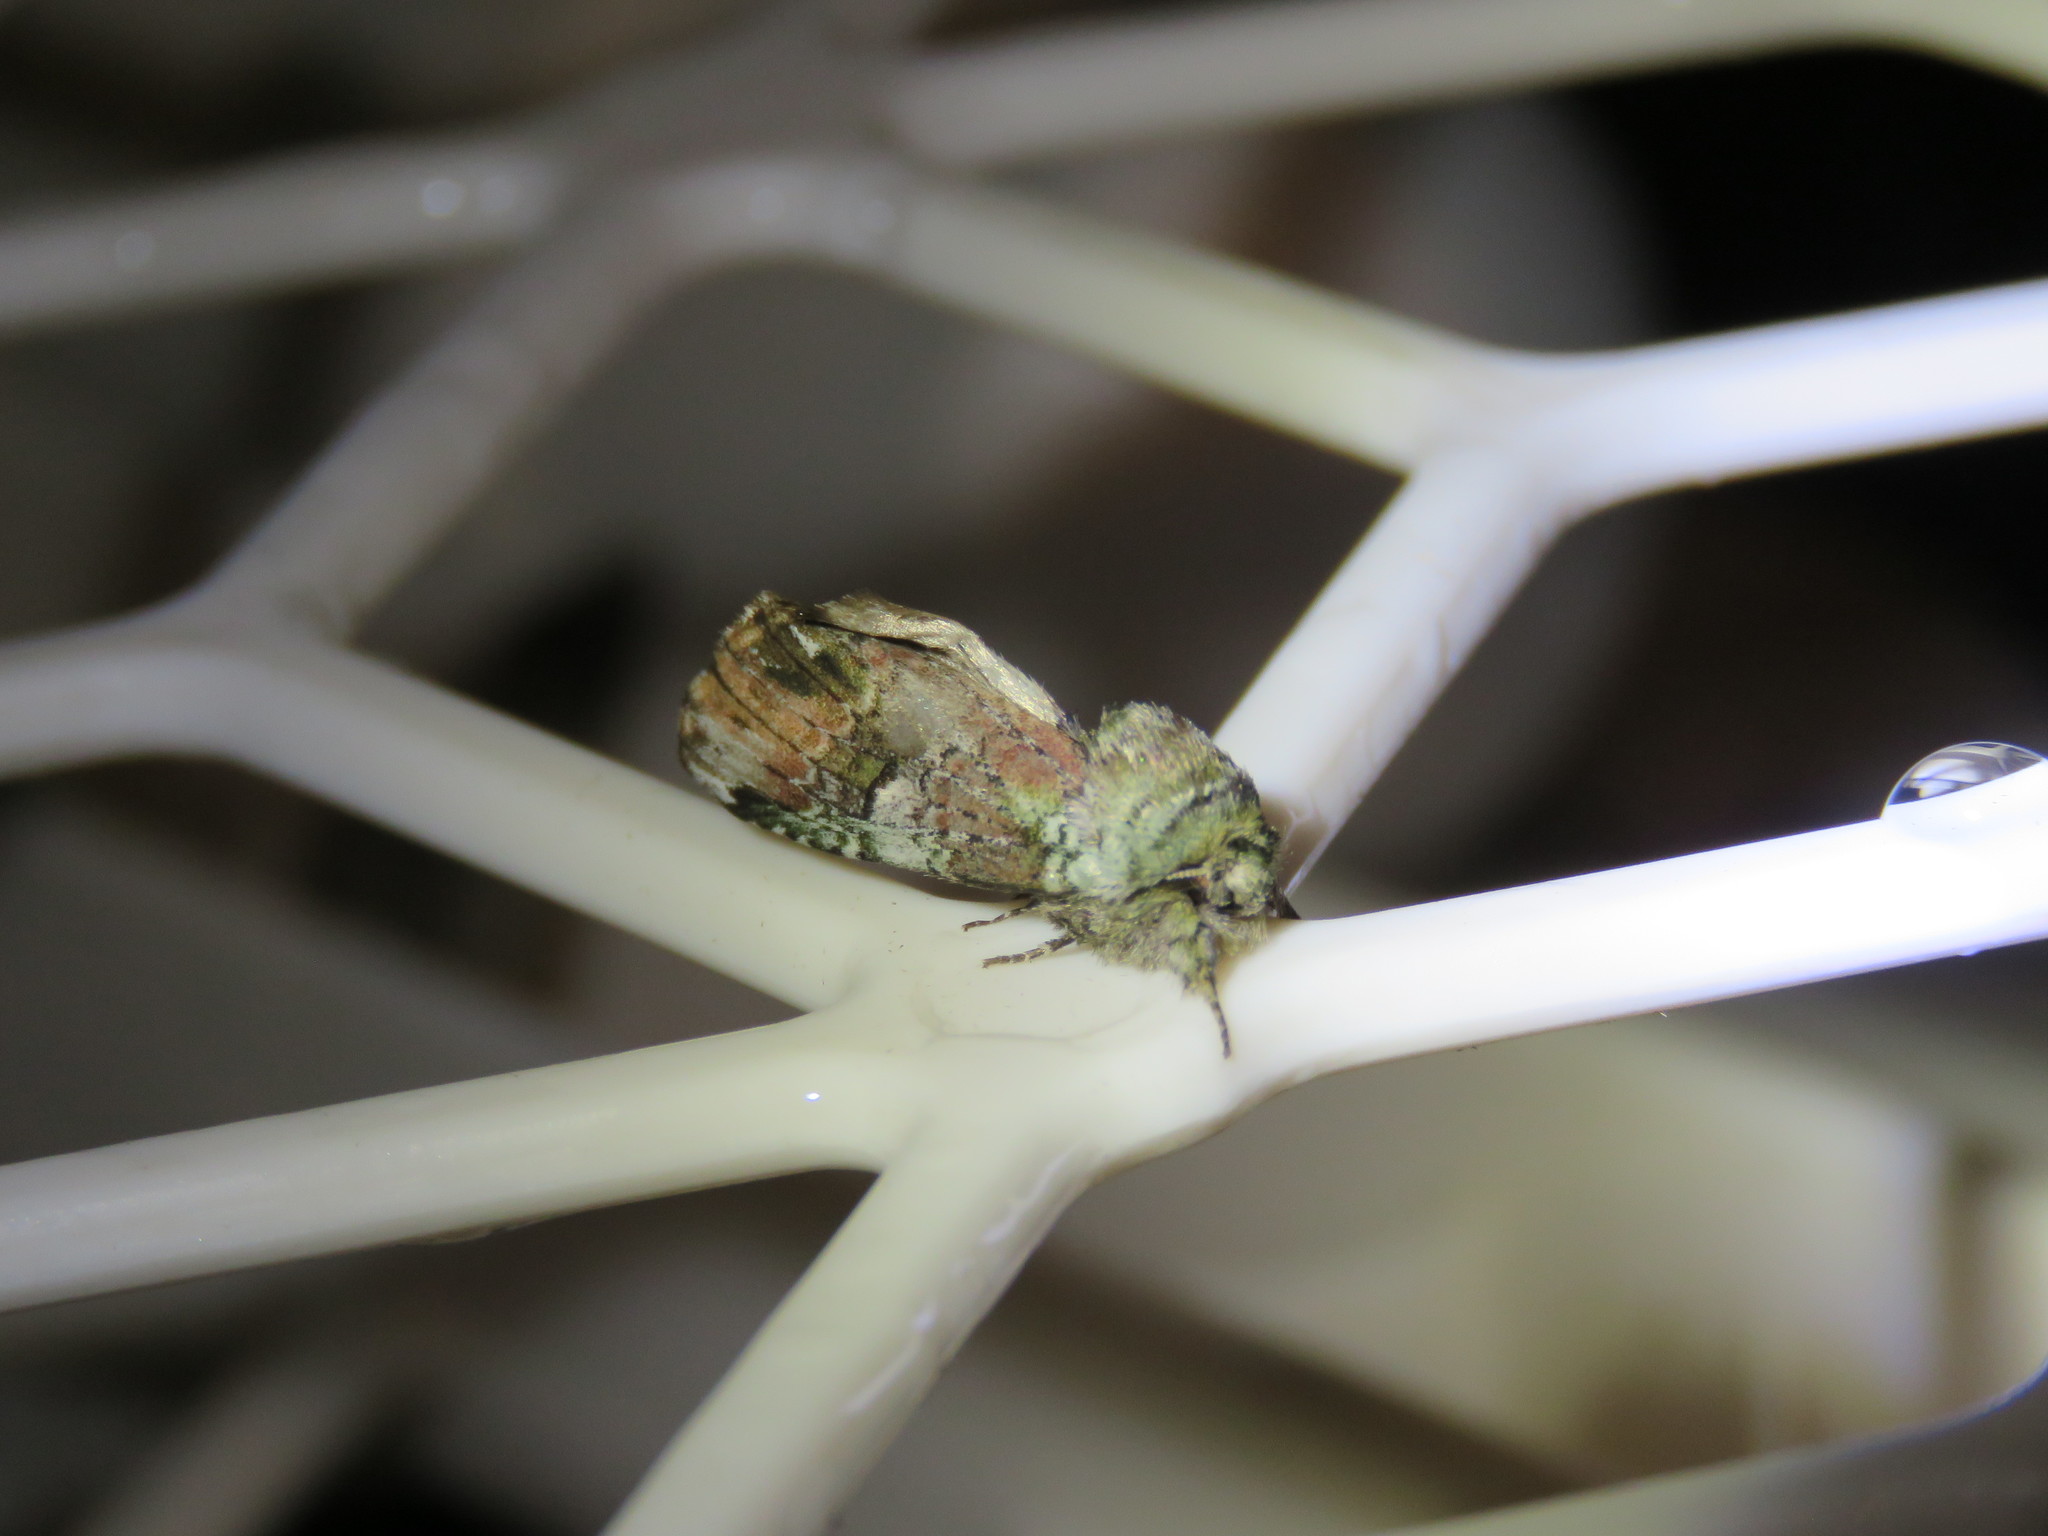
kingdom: Animalia
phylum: Arthropoda
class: Insecta
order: Lepidoptera
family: Notodontidae
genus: Schizura
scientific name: Schizura
